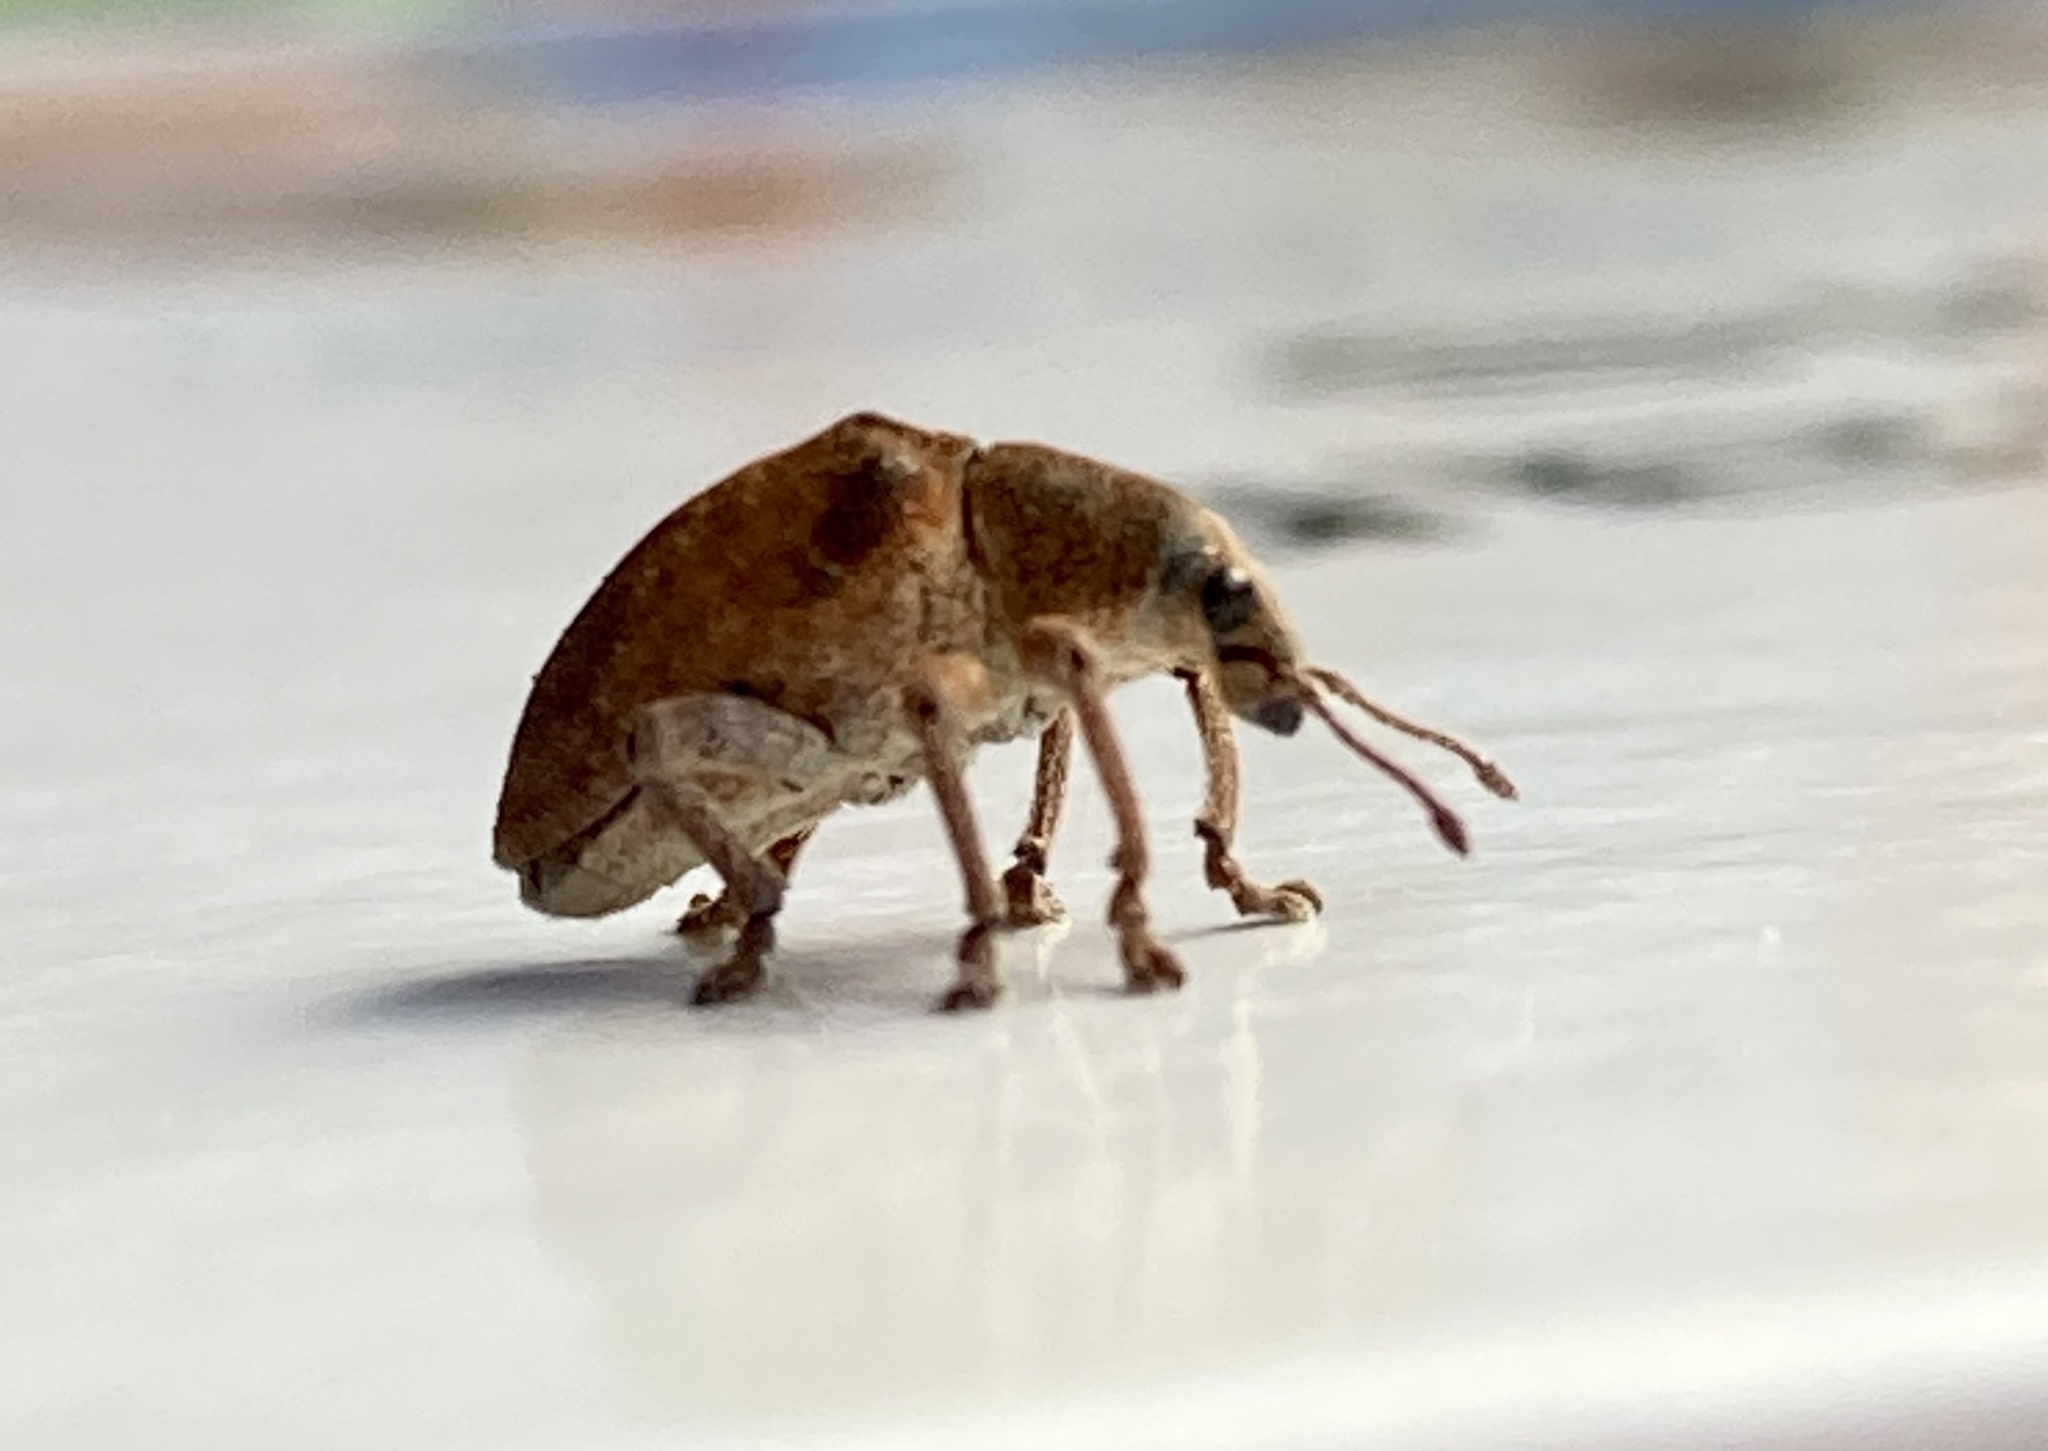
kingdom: Animalia
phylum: Arthropoda
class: Insecta
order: Coleoptera
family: Curculionidae
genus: Gonipterus
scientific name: Gonipterus platensis
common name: Eucalyptus snout beetle
